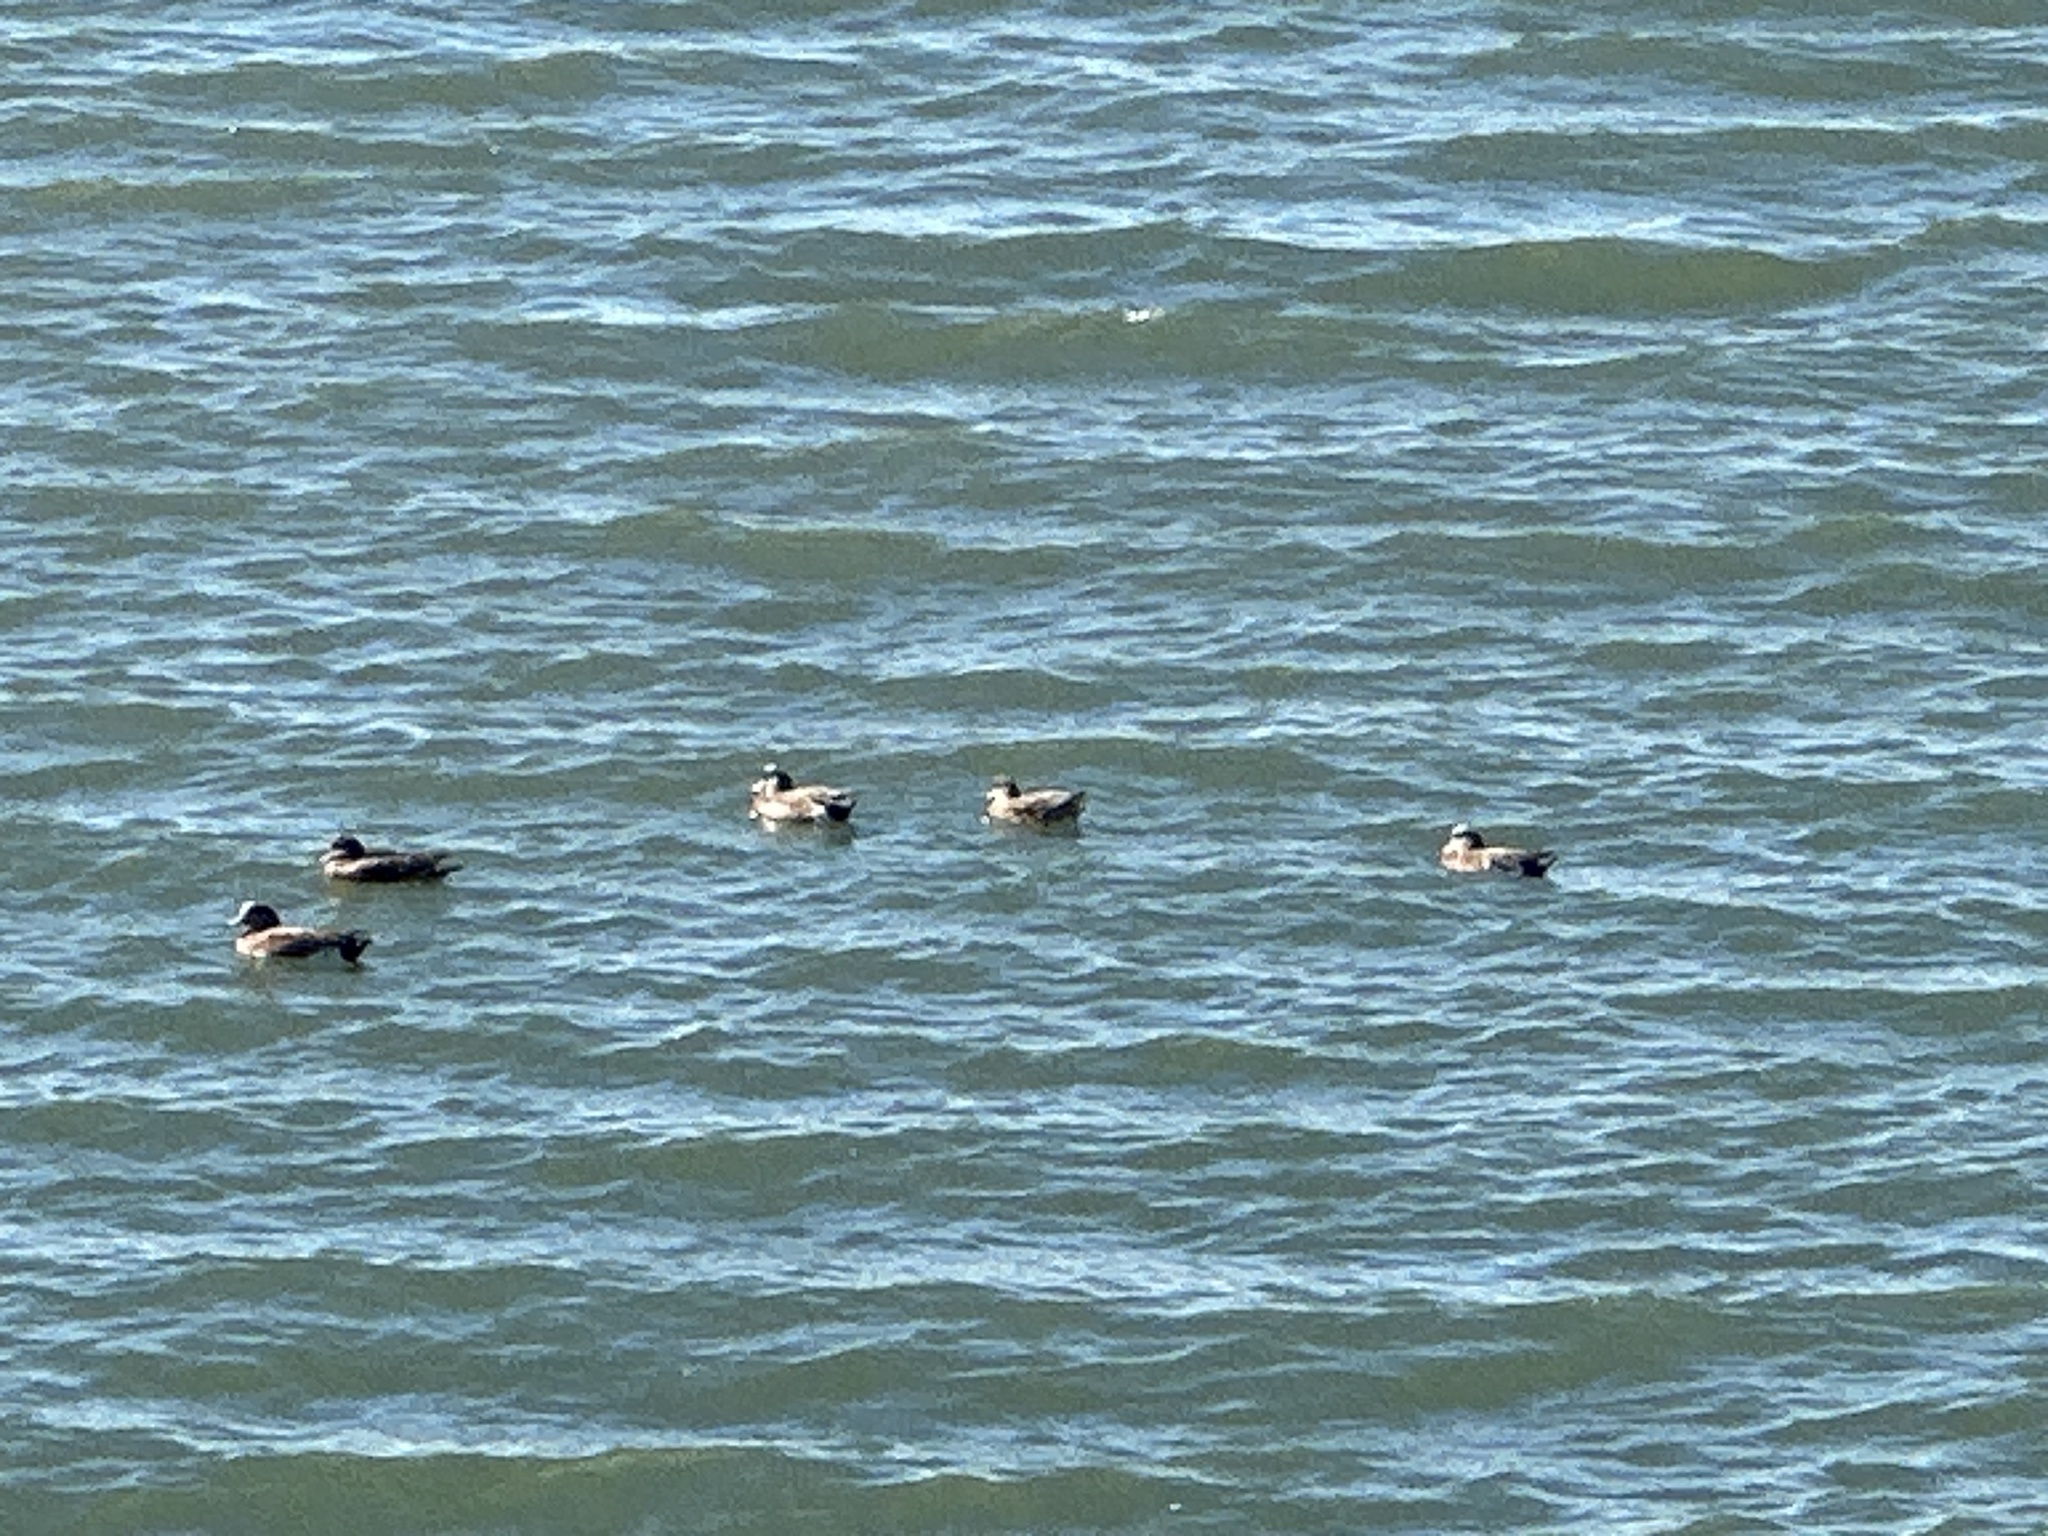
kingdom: Animalia
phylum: Chordata
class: Aves
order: Anseriformes
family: Anatidae
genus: Mareca
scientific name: Mareca americana
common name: American wigeon
